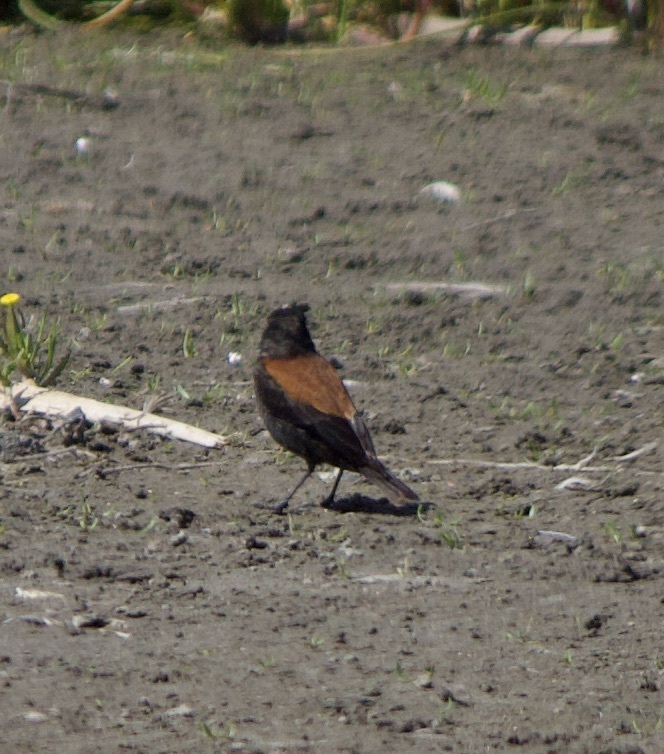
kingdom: Animalia
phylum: Chordata
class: Aves
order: Passeriformes
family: Tyrannidae
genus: Lessonia
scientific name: Lessonia rufa
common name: Austral negrito
